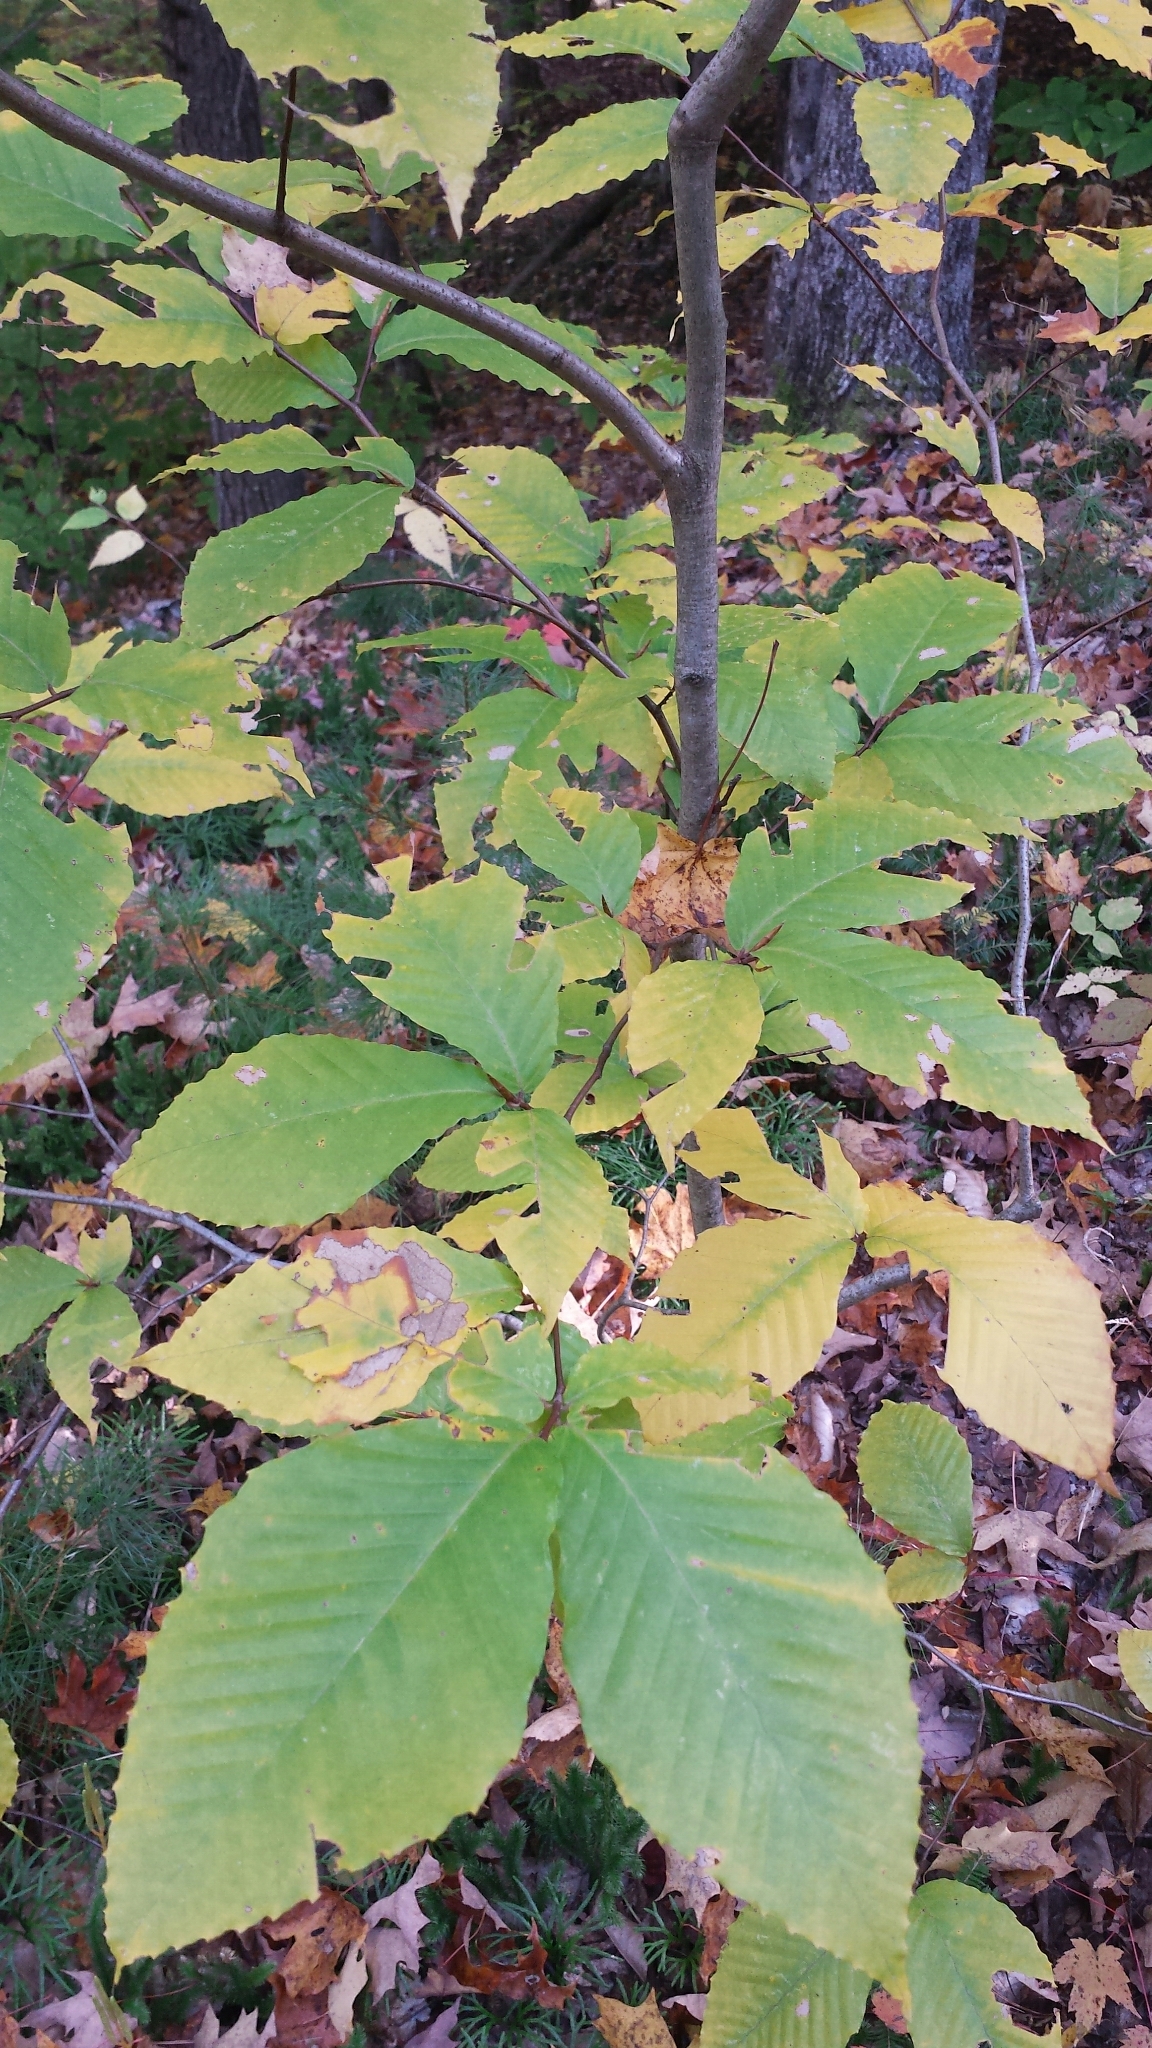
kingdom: Plantae
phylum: Tracheophyta
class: Magnoliopsida
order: Fagales
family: Fagaceae
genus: Fagus
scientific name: Fagus grandifolia
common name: American beech
